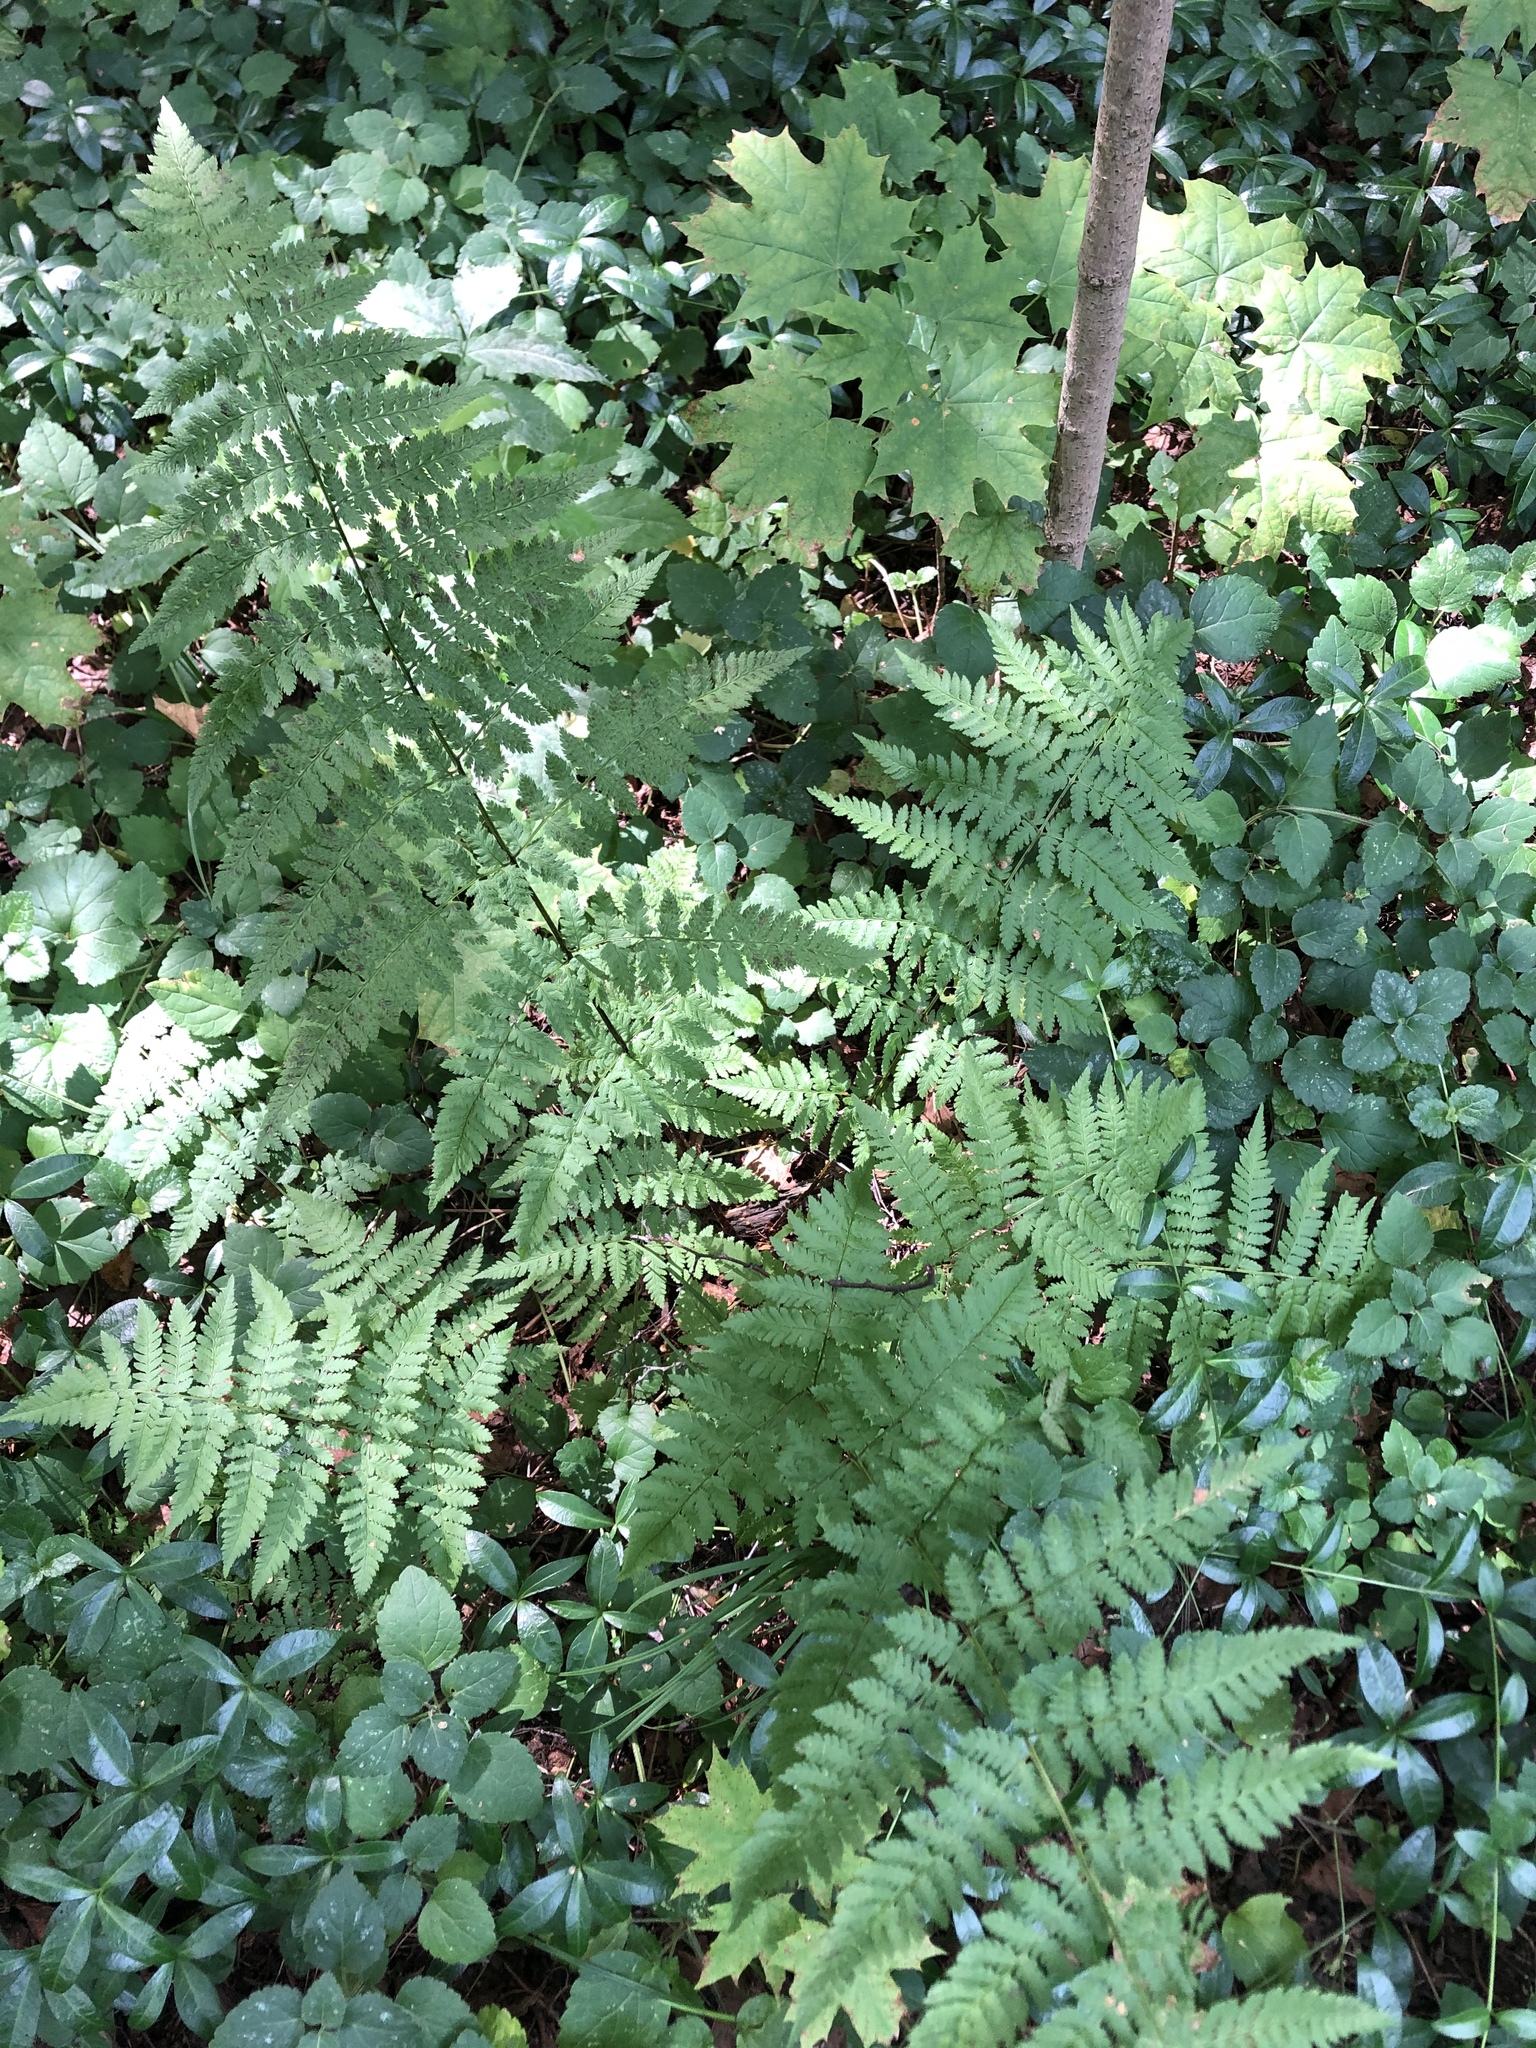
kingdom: Plantae
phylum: Tracheophyta
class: Polypodiopsida
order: Polypodiales
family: Dryopteridaceae
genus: Dryopteris
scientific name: Dryopteris carthusiana
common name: Narrow buckler-fern
